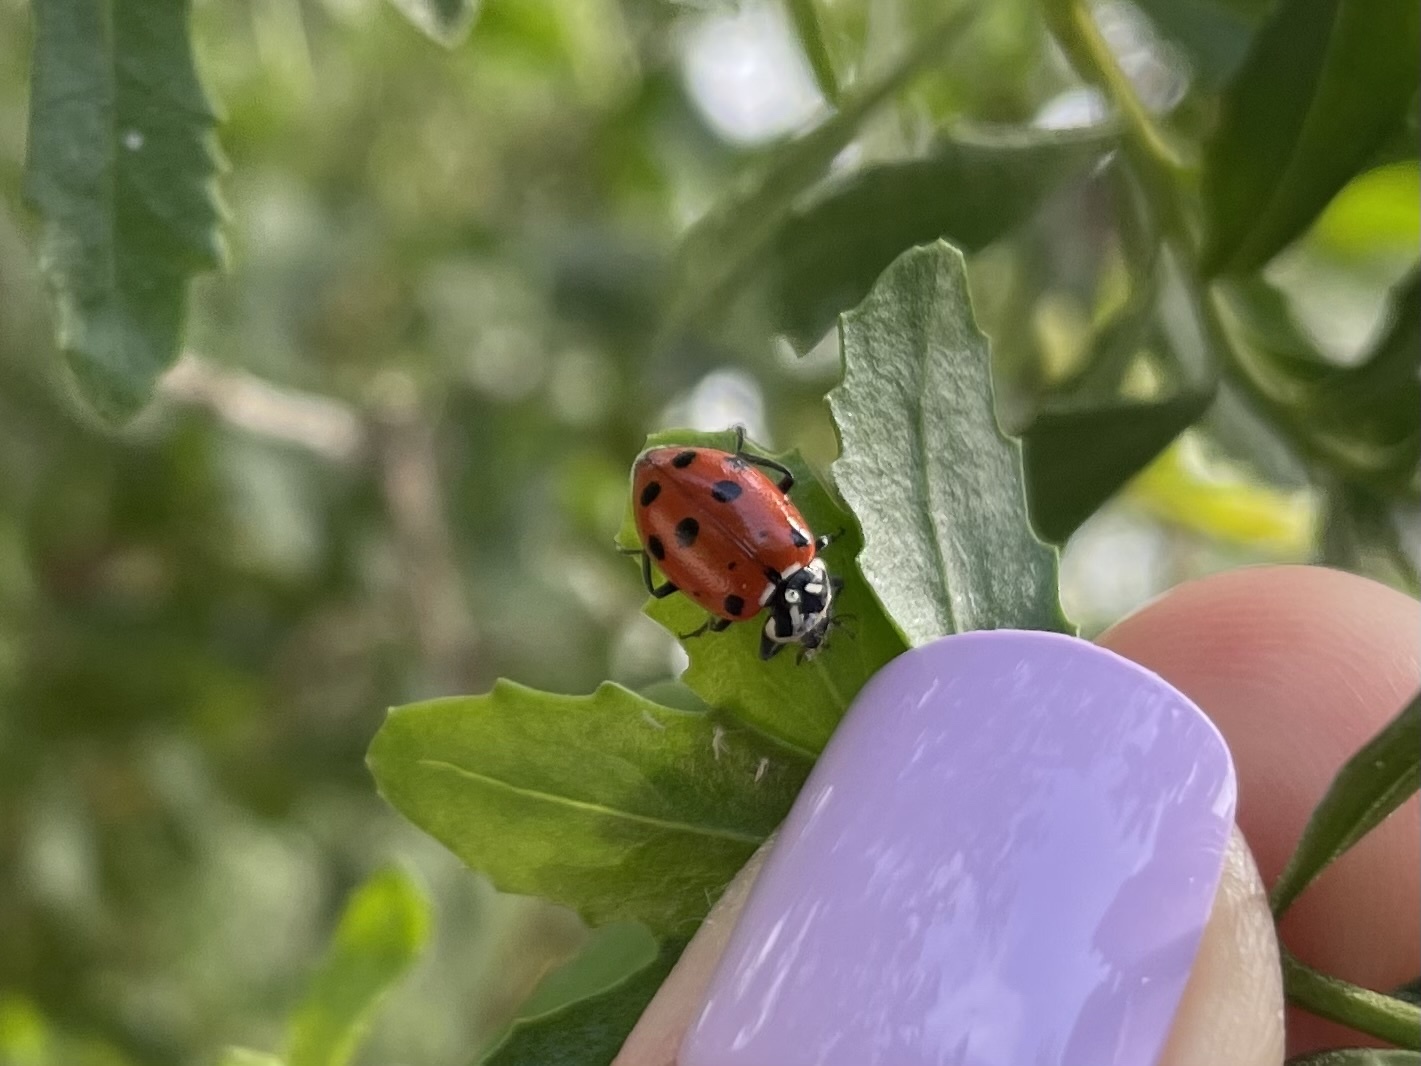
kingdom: Animalia
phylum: Arthropoda
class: Insecta
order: Coleoptera
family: Coccinellidae
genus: Hippodamia
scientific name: Hippodamia convergens
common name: Convergent lady beetle
